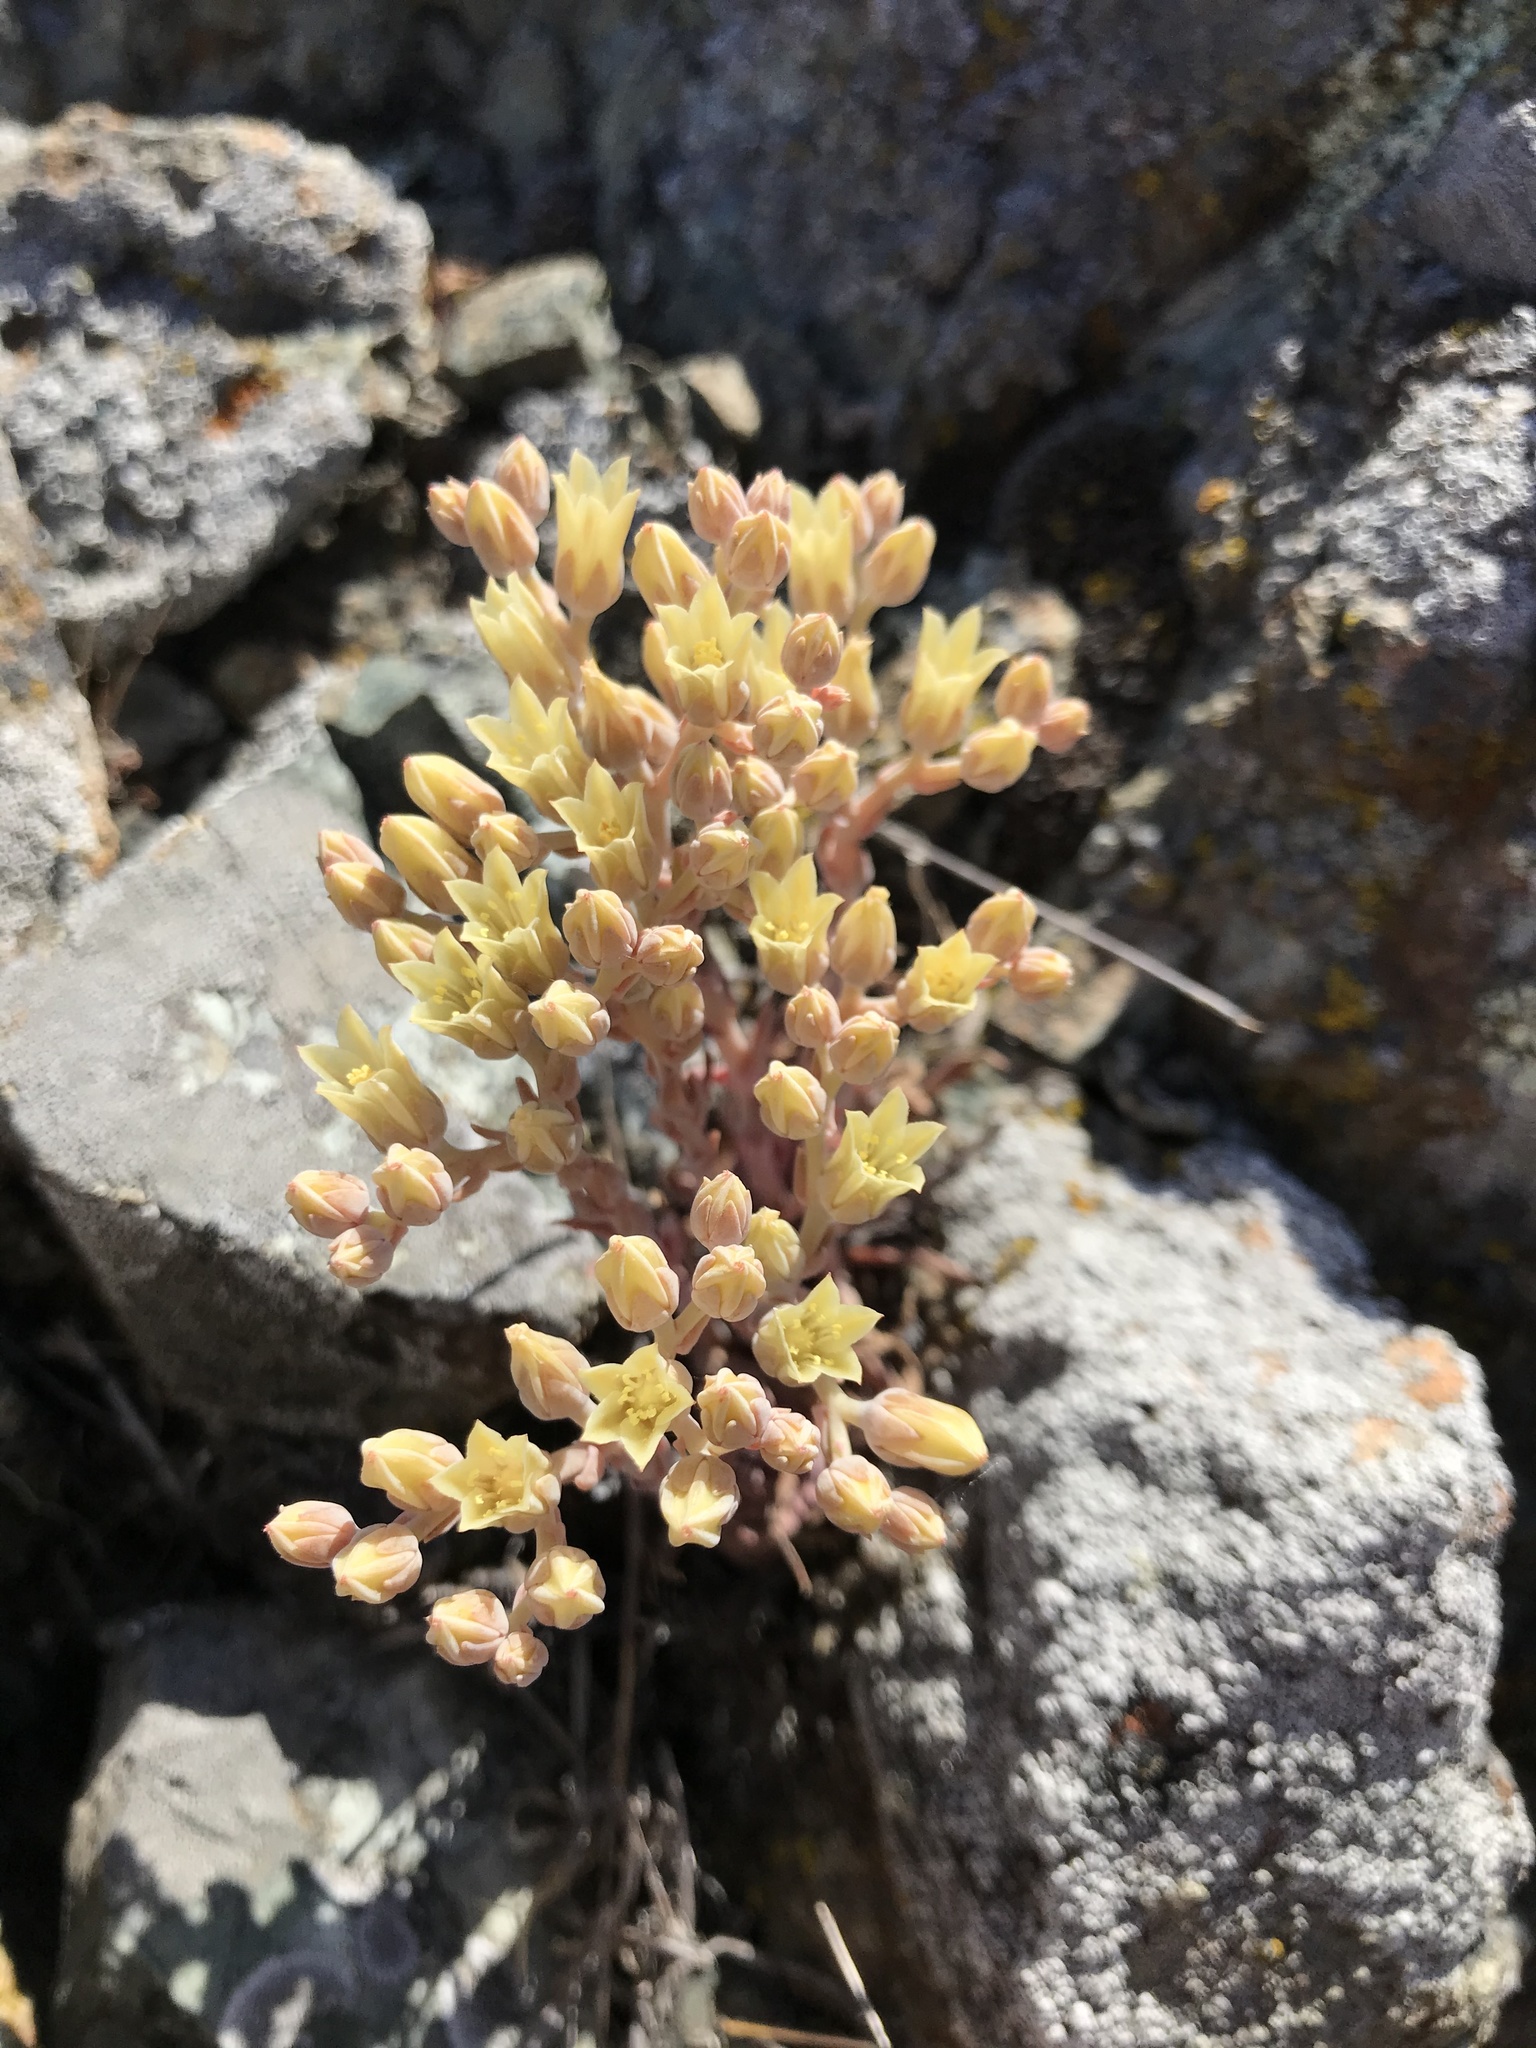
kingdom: Plantae
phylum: Tracheophyta
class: Magnoliopsida
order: Saxifragales
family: Crassulaceae
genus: Dudleya
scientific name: Dudleya abramsii
